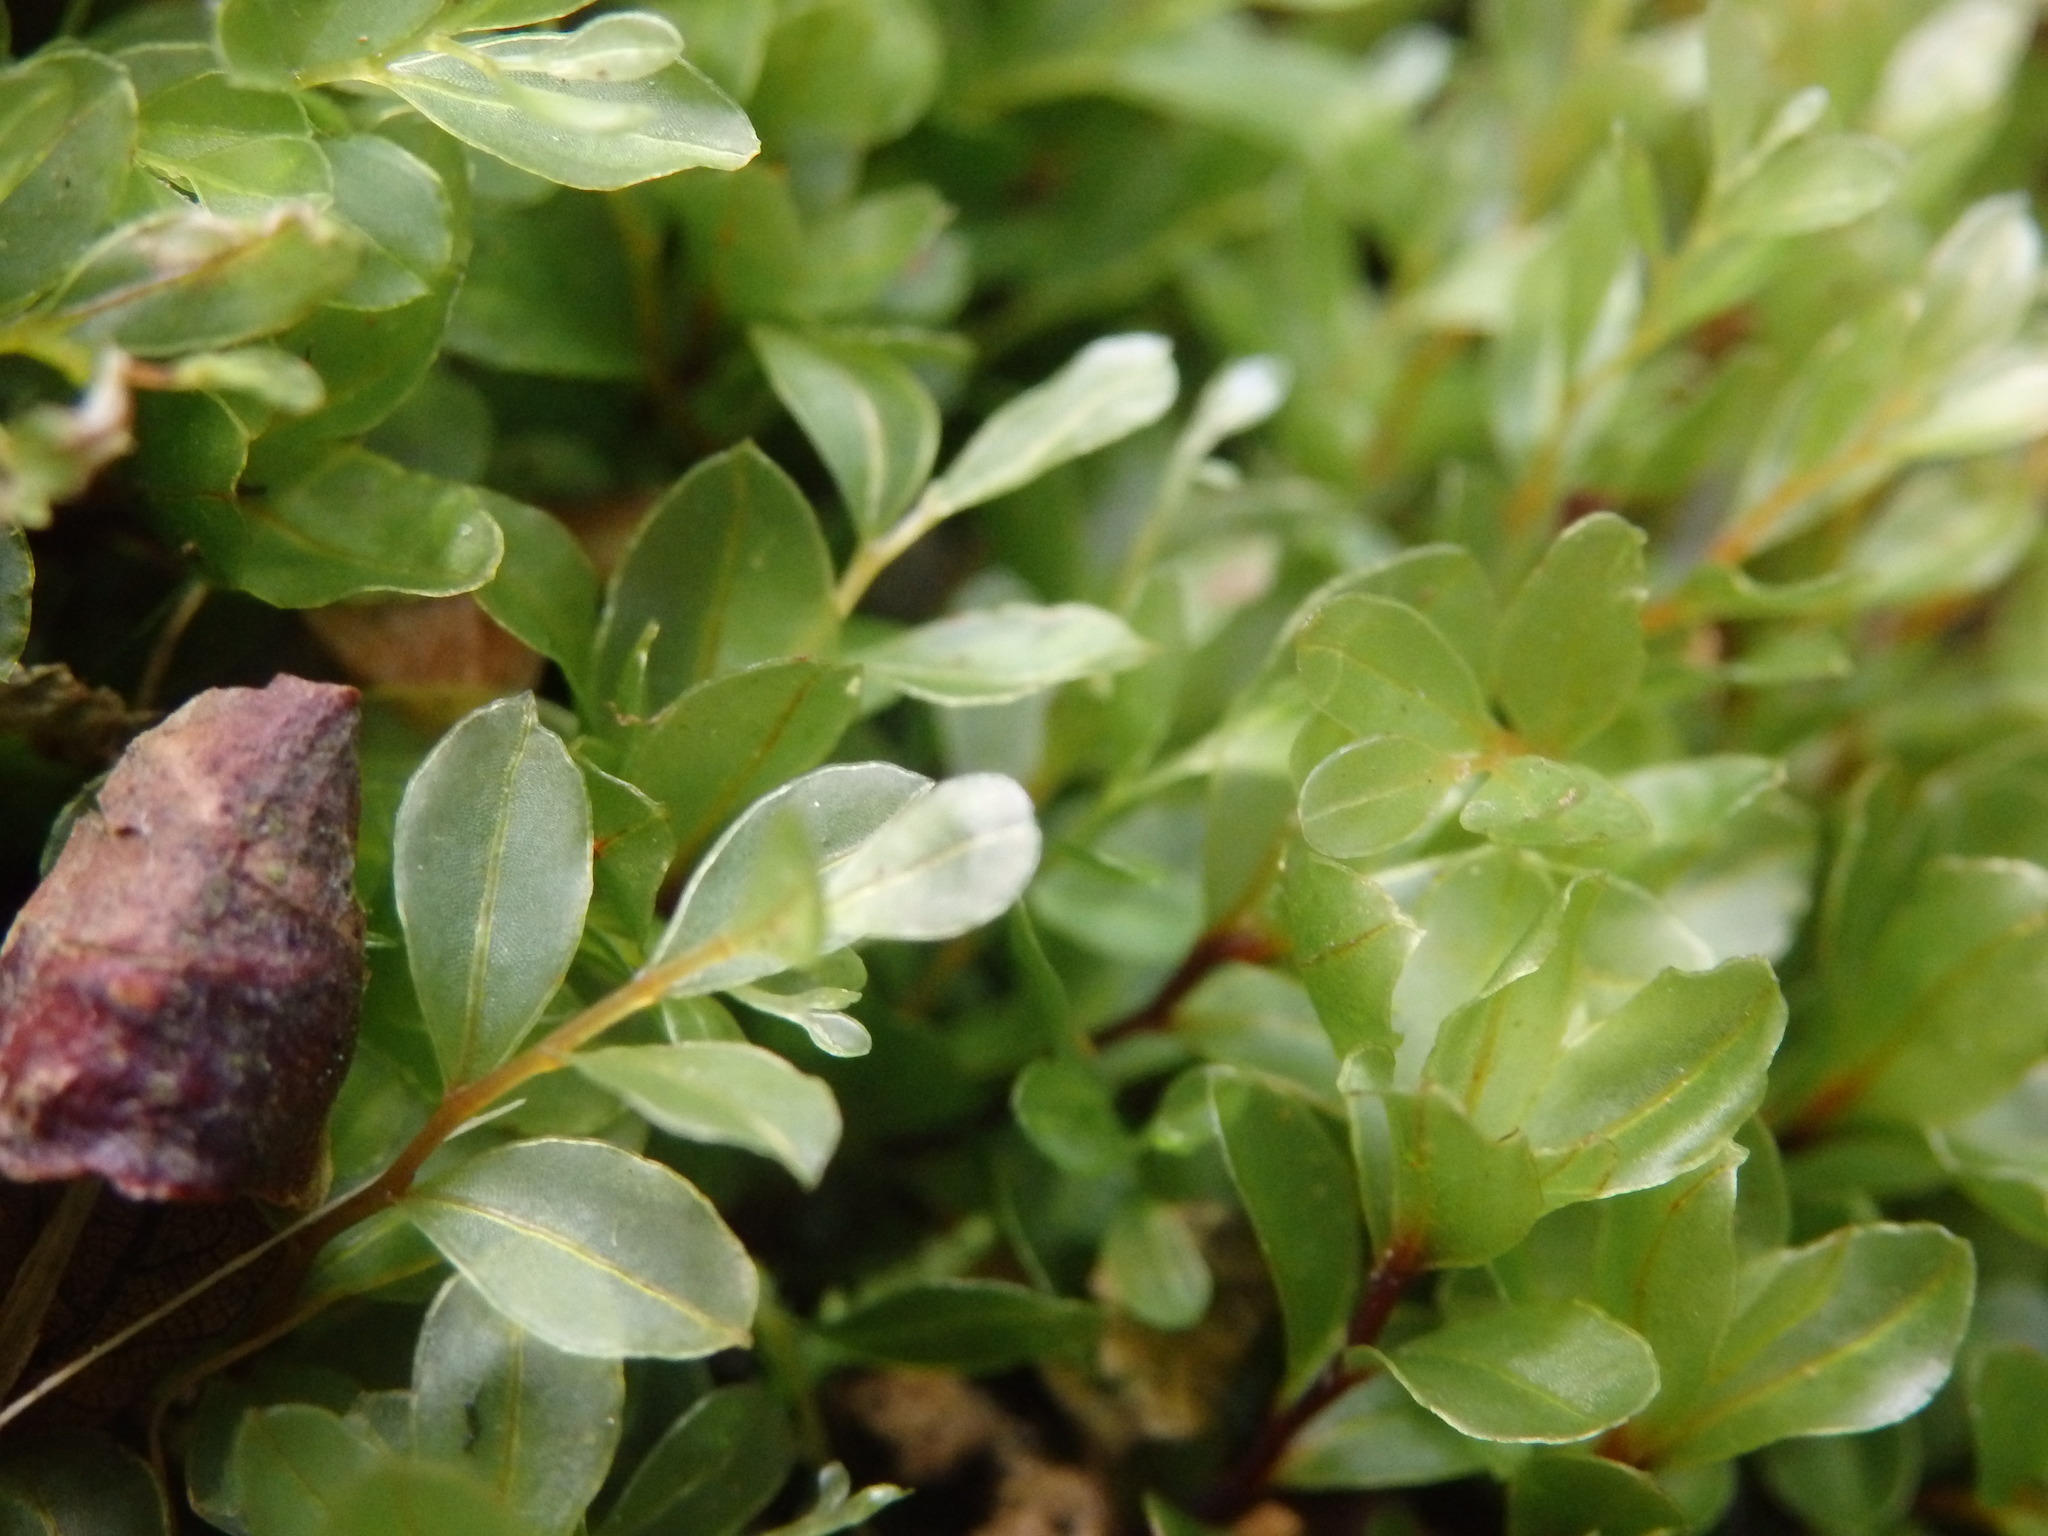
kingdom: Plantae
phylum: Bryophyta
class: Bryopsida
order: Bryales
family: Mniaceae
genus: Rhizomnium
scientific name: Rhizomnium punctatum
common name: Dotted leafy moss
